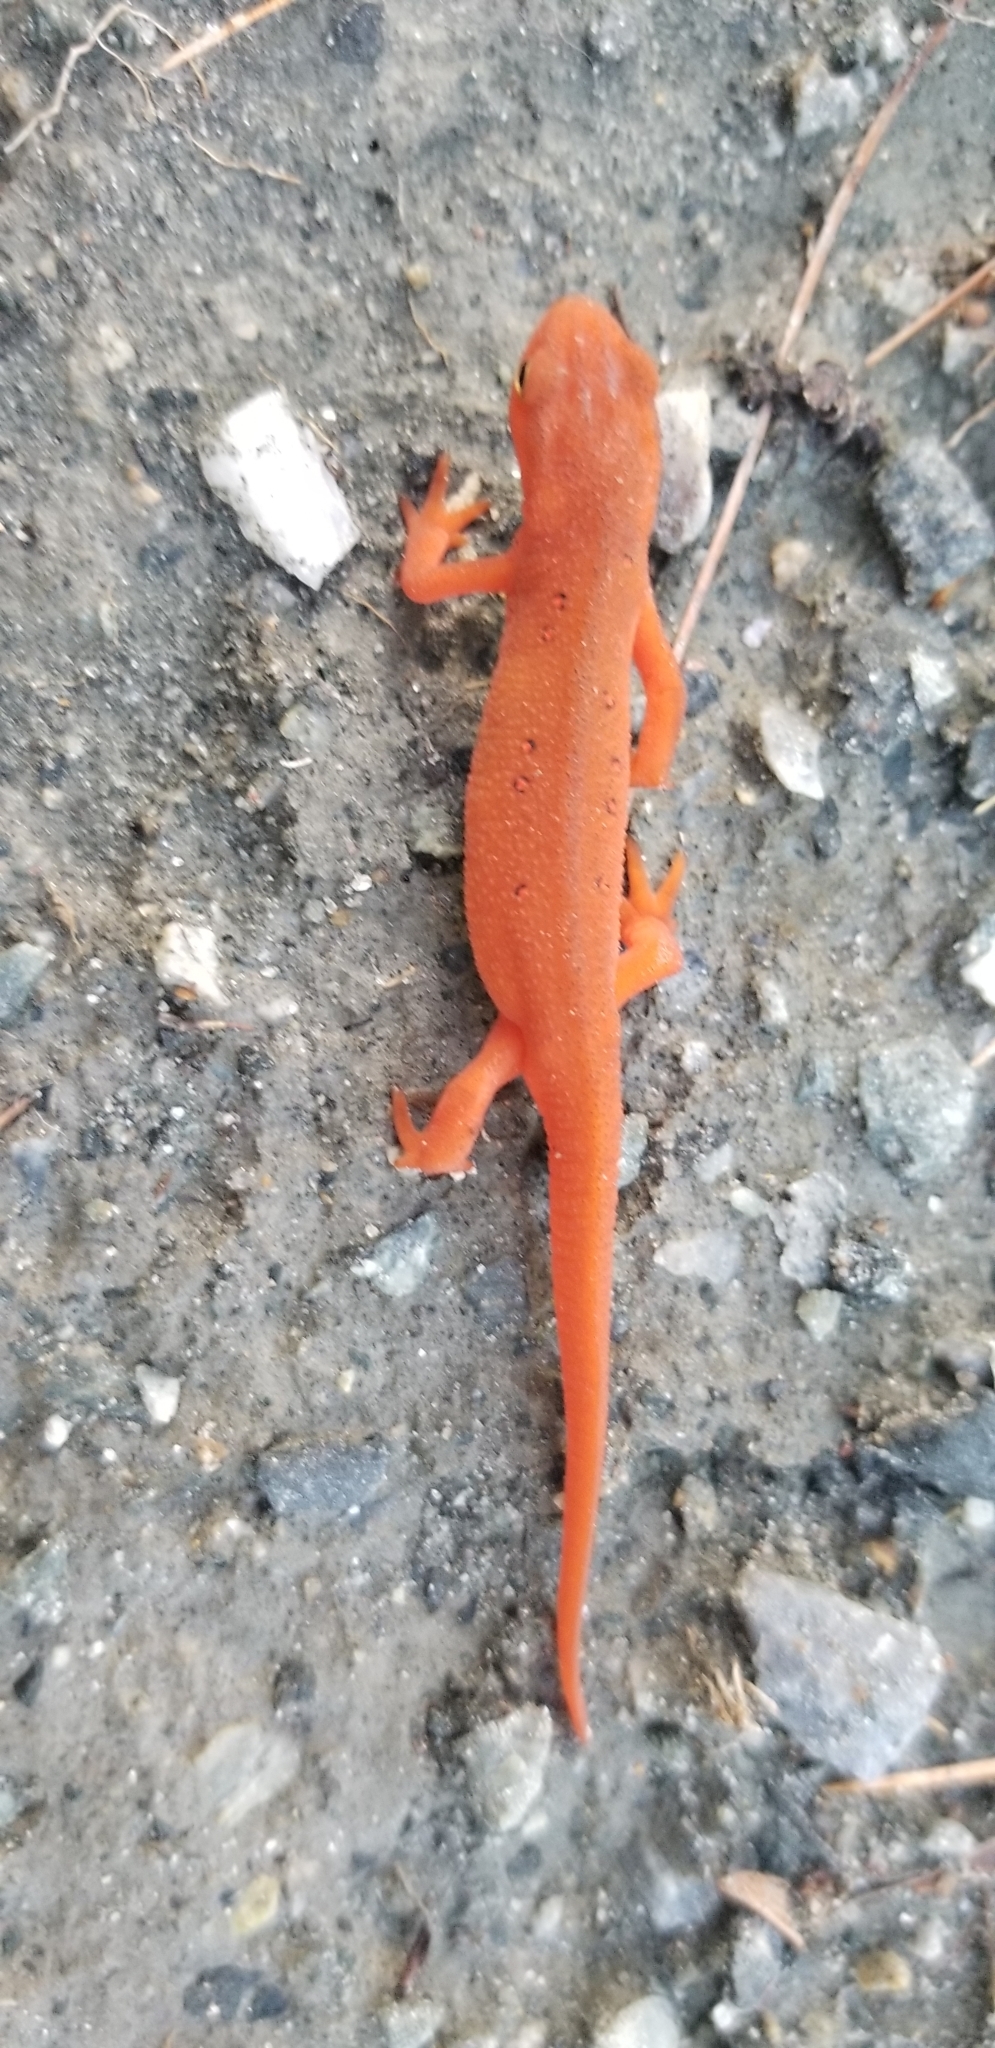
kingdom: Animalia
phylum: Chordata
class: Amphibia
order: Caudata
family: Salamandridae
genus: Notophthalmus
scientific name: Notophthalmus viridescens
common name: Eastern newt
